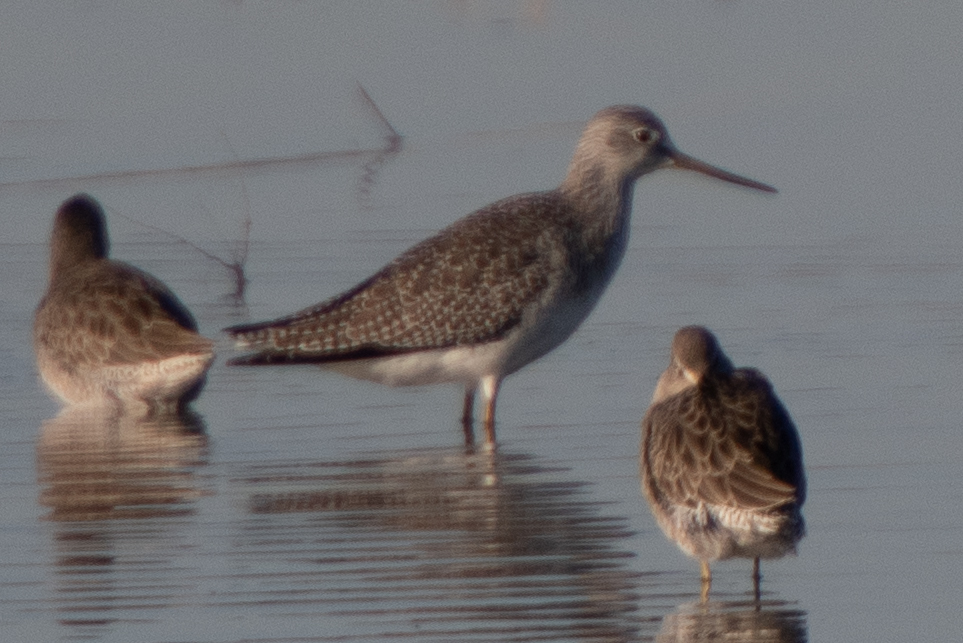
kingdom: Animalia
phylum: Chordata
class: Aves
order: Charadriiformes
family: Scolopacidae
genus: Tringa
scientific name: Tringa melanoleuca
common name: Greater yellowlegs
